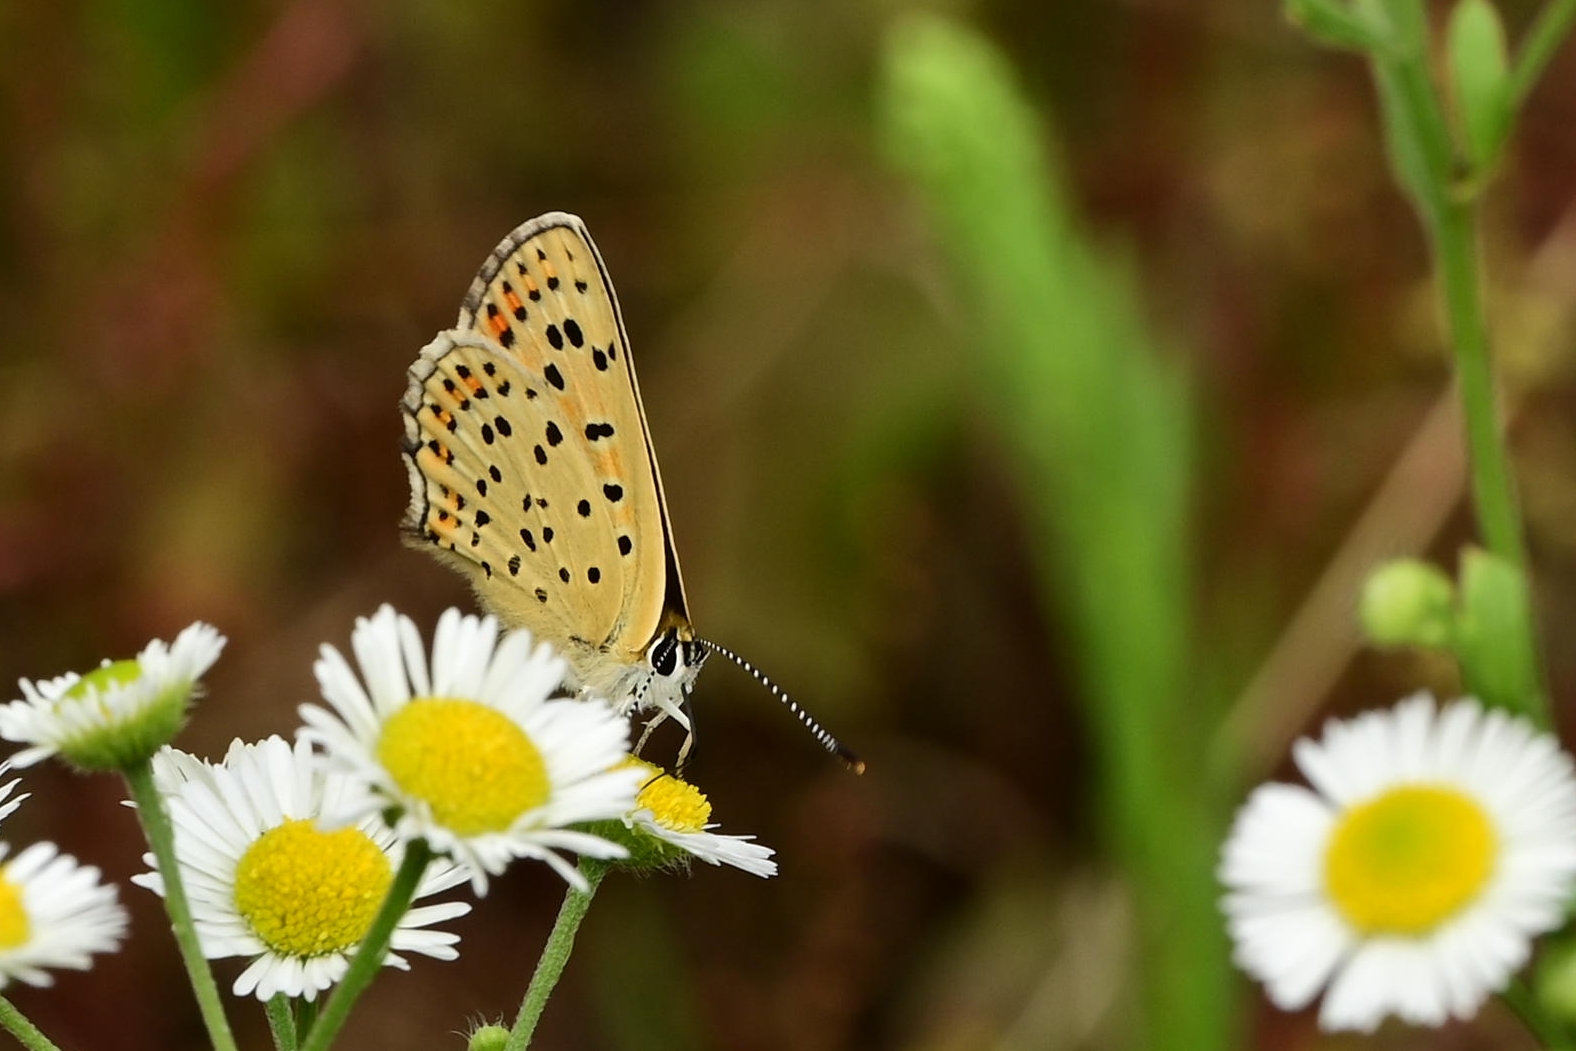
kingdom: Animalia
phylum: Arthropoda
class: Insecta
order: Lepidoptera
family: Lycaenidae
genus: Loweia
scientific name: Loweia tityrus
